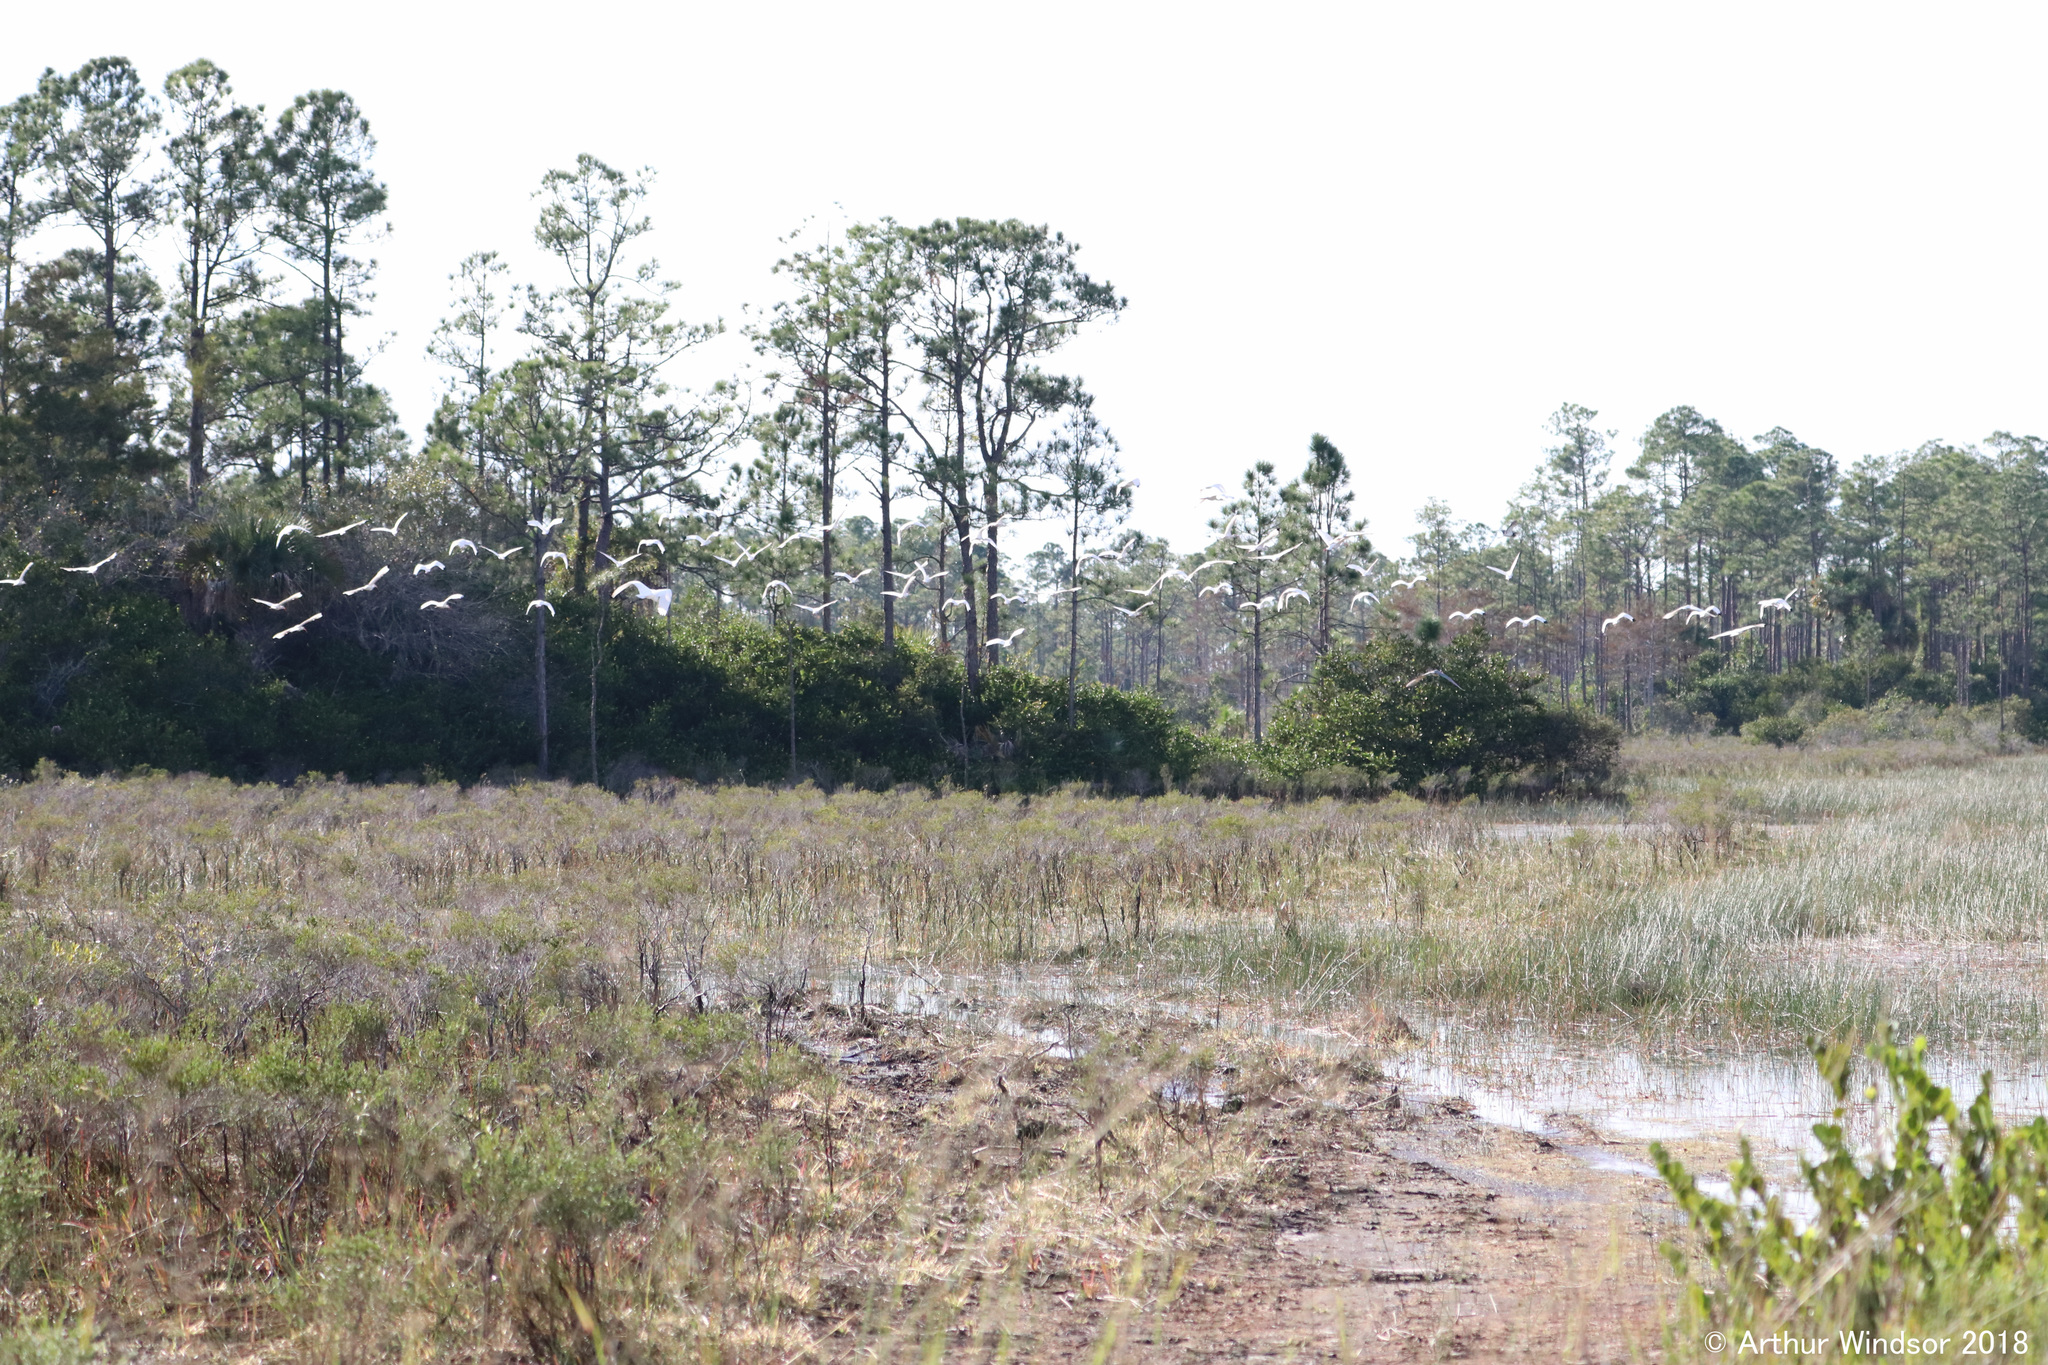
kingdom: Animalia
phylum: Chordata
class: Aves
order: Pelecaniformes
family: Threskiornithidae
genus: Eudocimus
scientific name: Eudocimus albus
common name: White ibis
